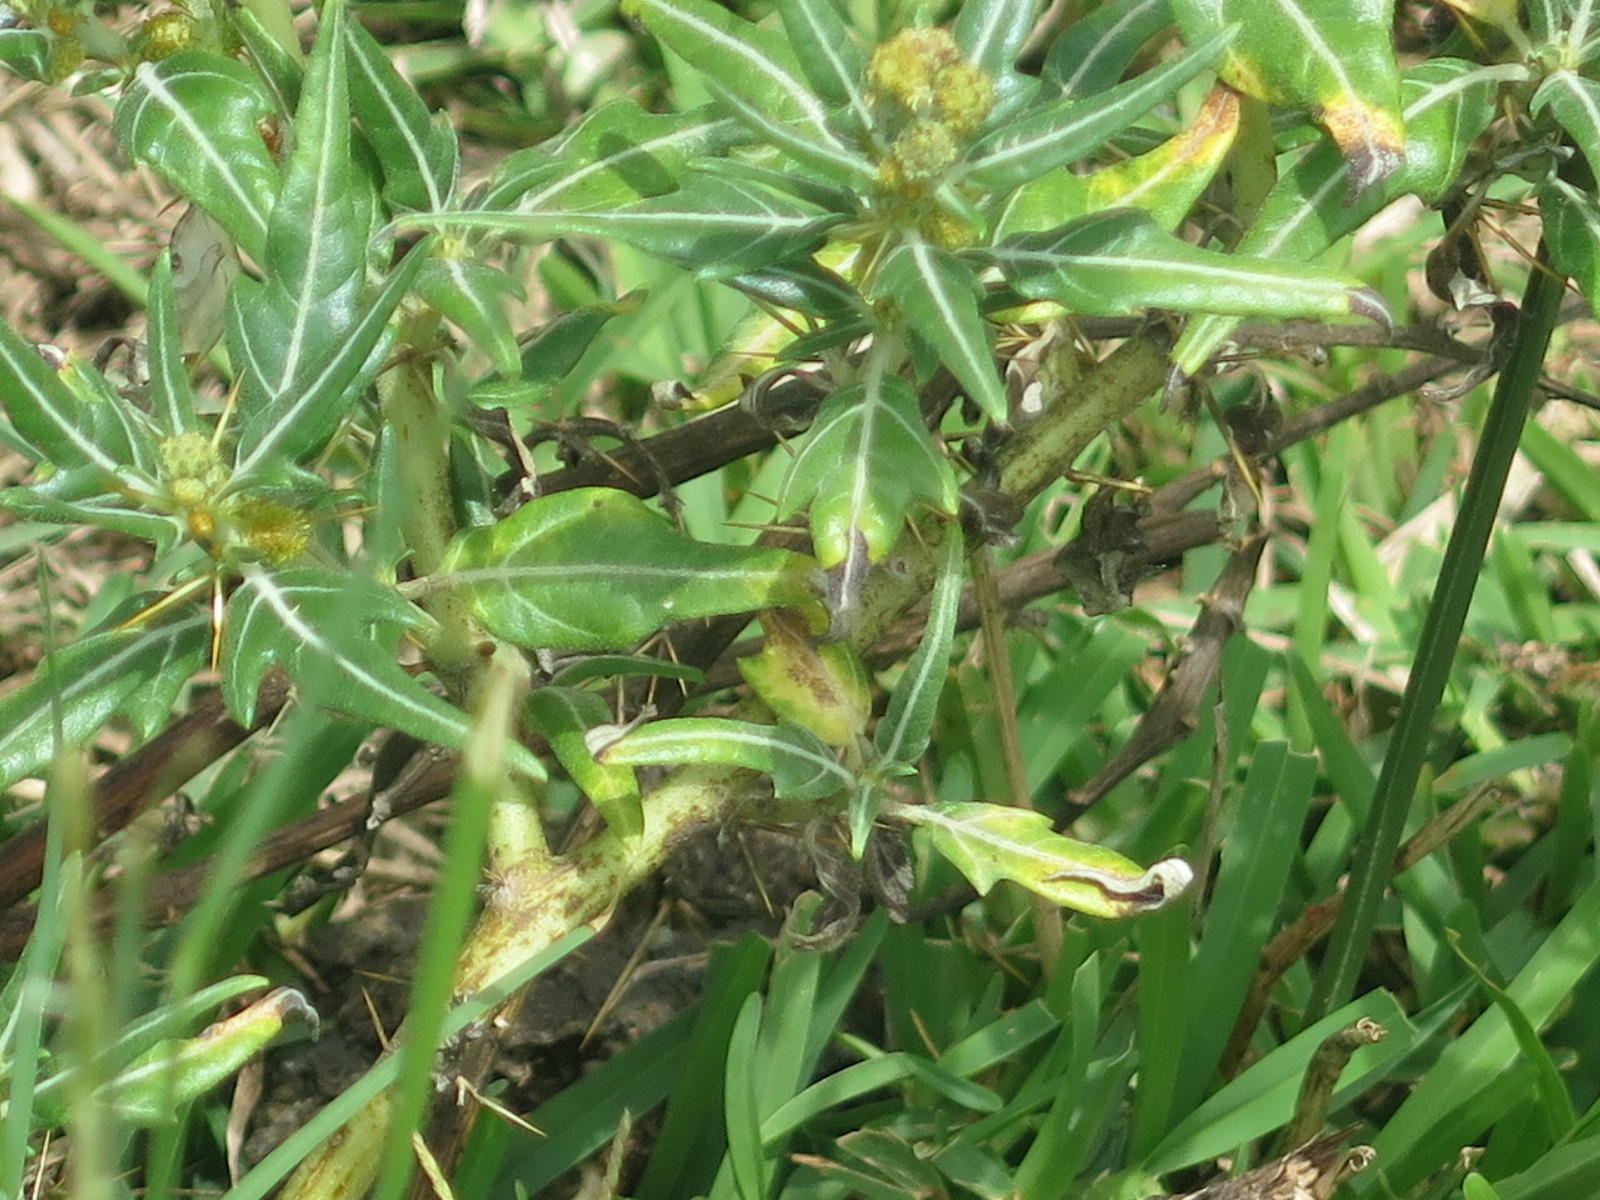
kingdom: Plantae
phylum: Tracheophyta
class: Magnoliopsida
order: Asterales
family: Asteraceae
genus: Xanthium
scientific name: Xanthium spinosum
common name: Spiny cocklebur
